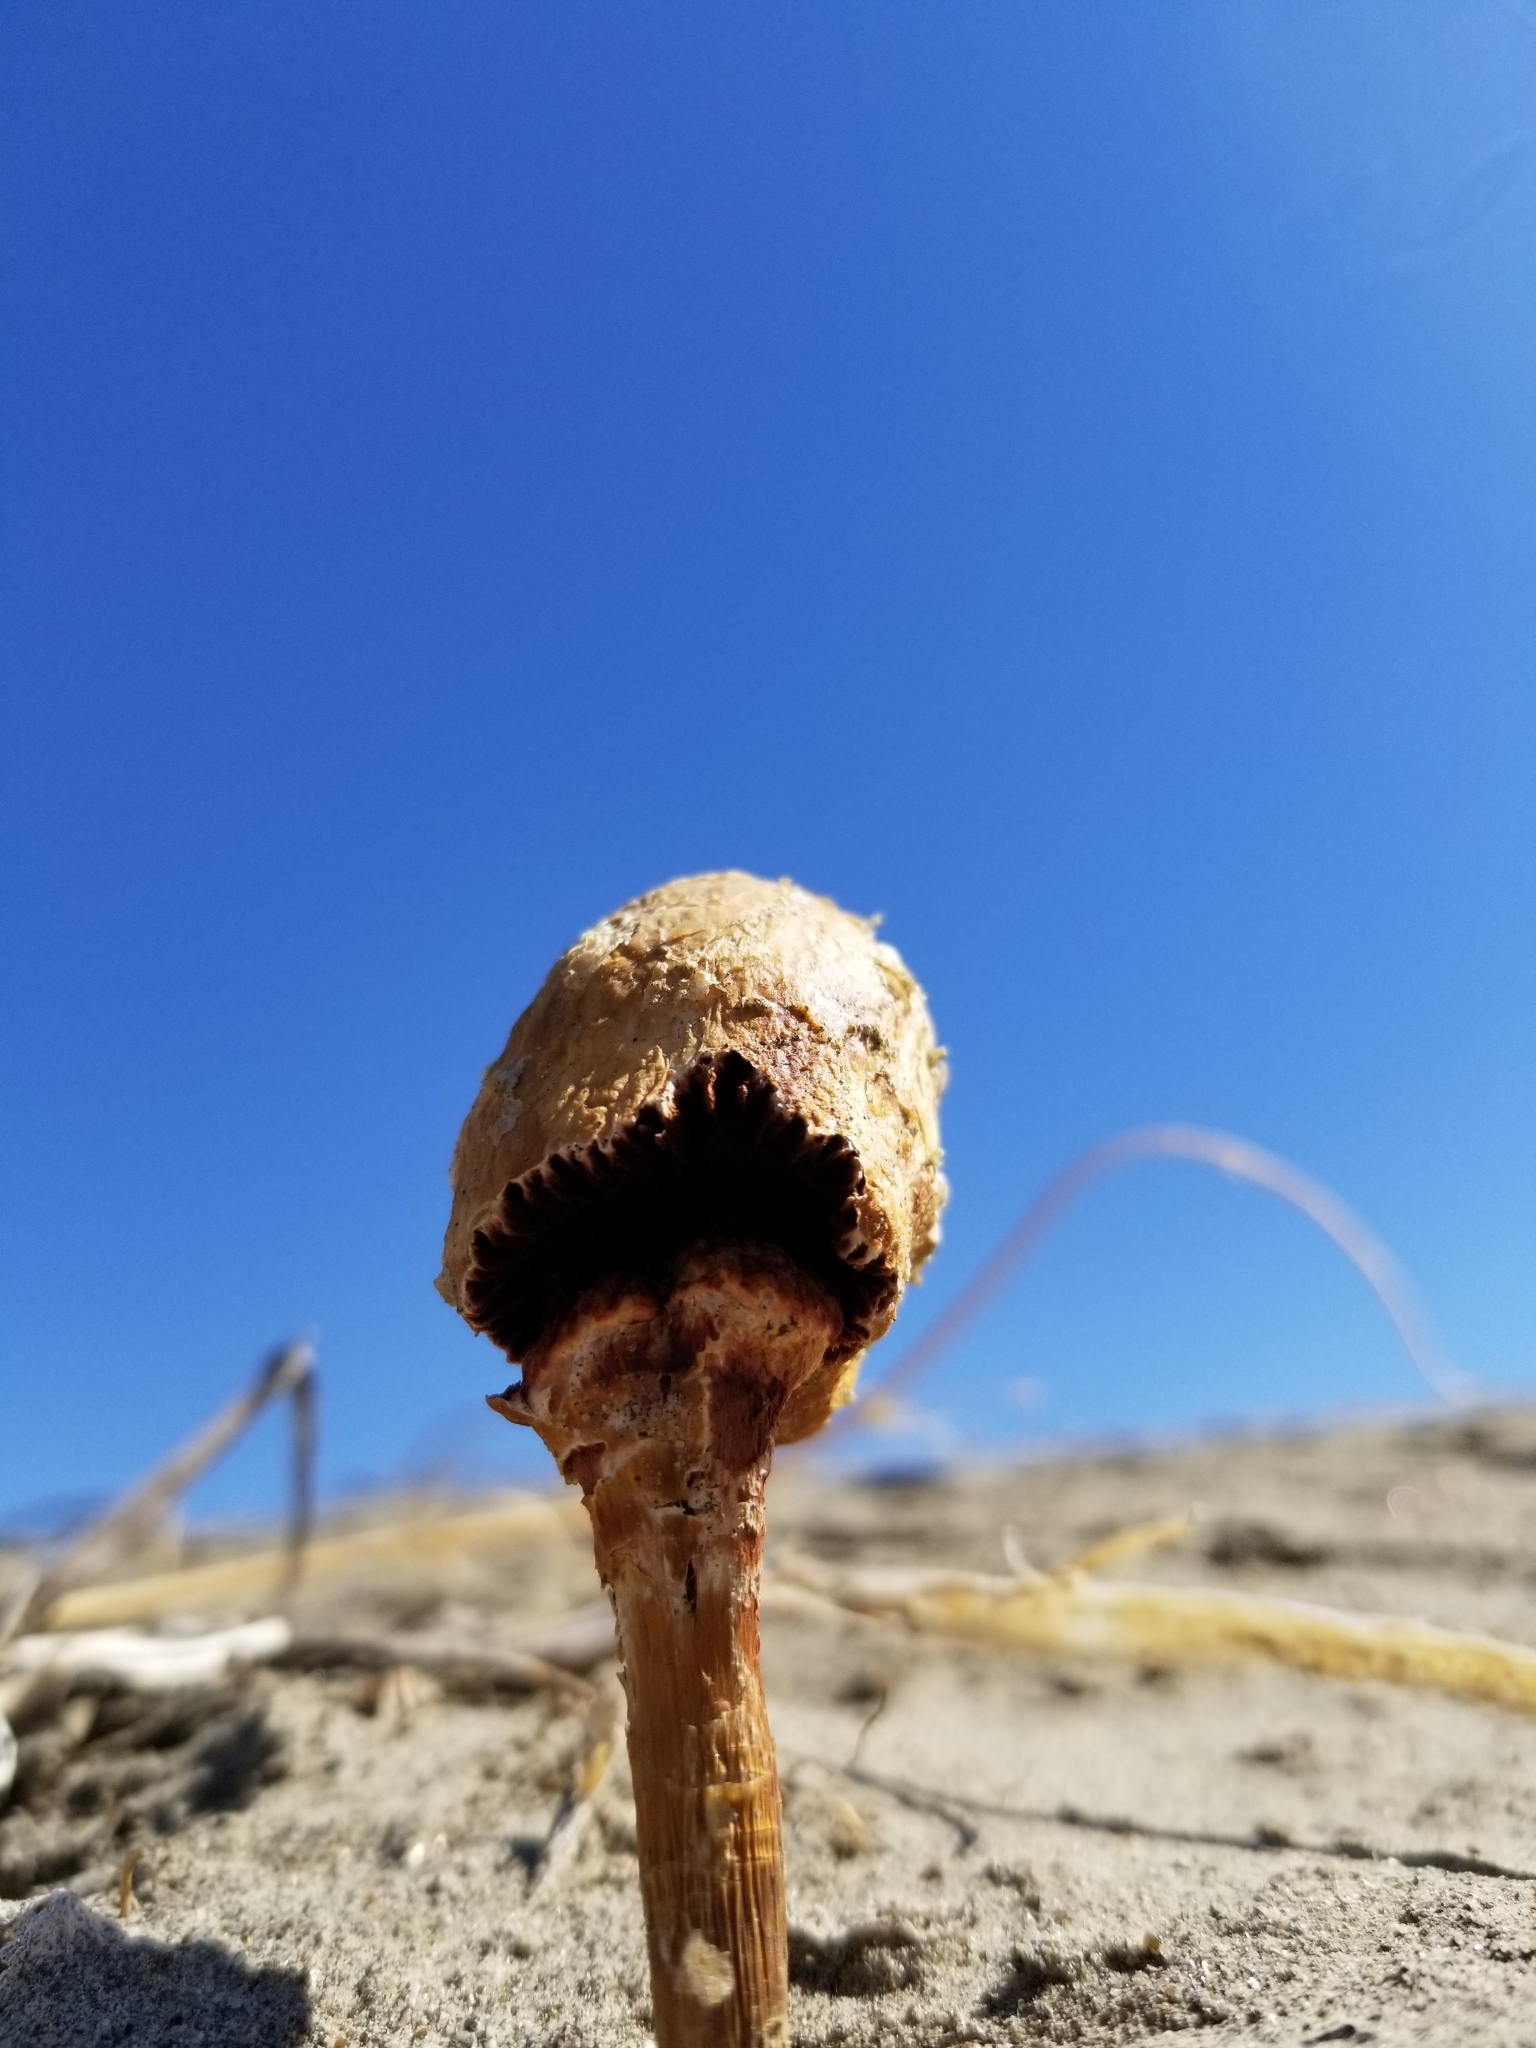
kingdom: Fungi
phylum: Basidiomycota
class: Agaricomycetes
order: Agaricales
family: Agaricaceae
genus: Podaxis
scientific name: Podaxis pistillaris
